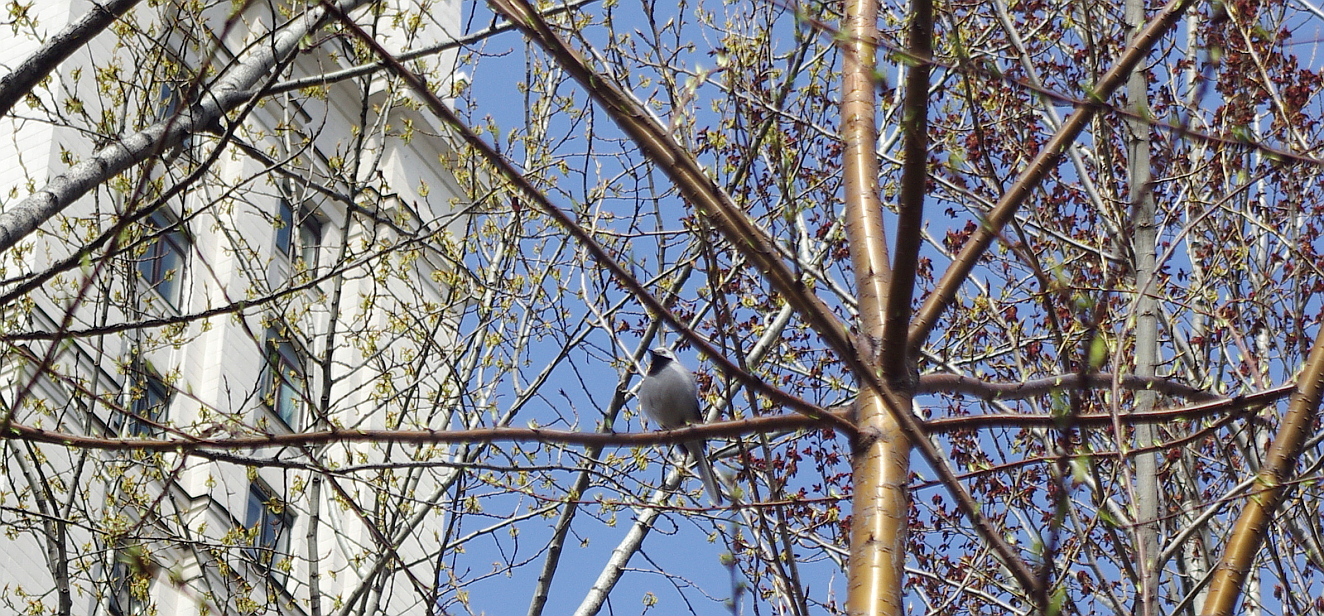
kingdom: Animalia
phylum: Chordata
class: Aves
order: Passeriformes
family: Motacillidae
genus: Motacilla
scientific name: Motacilla alba
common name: White wagtail
